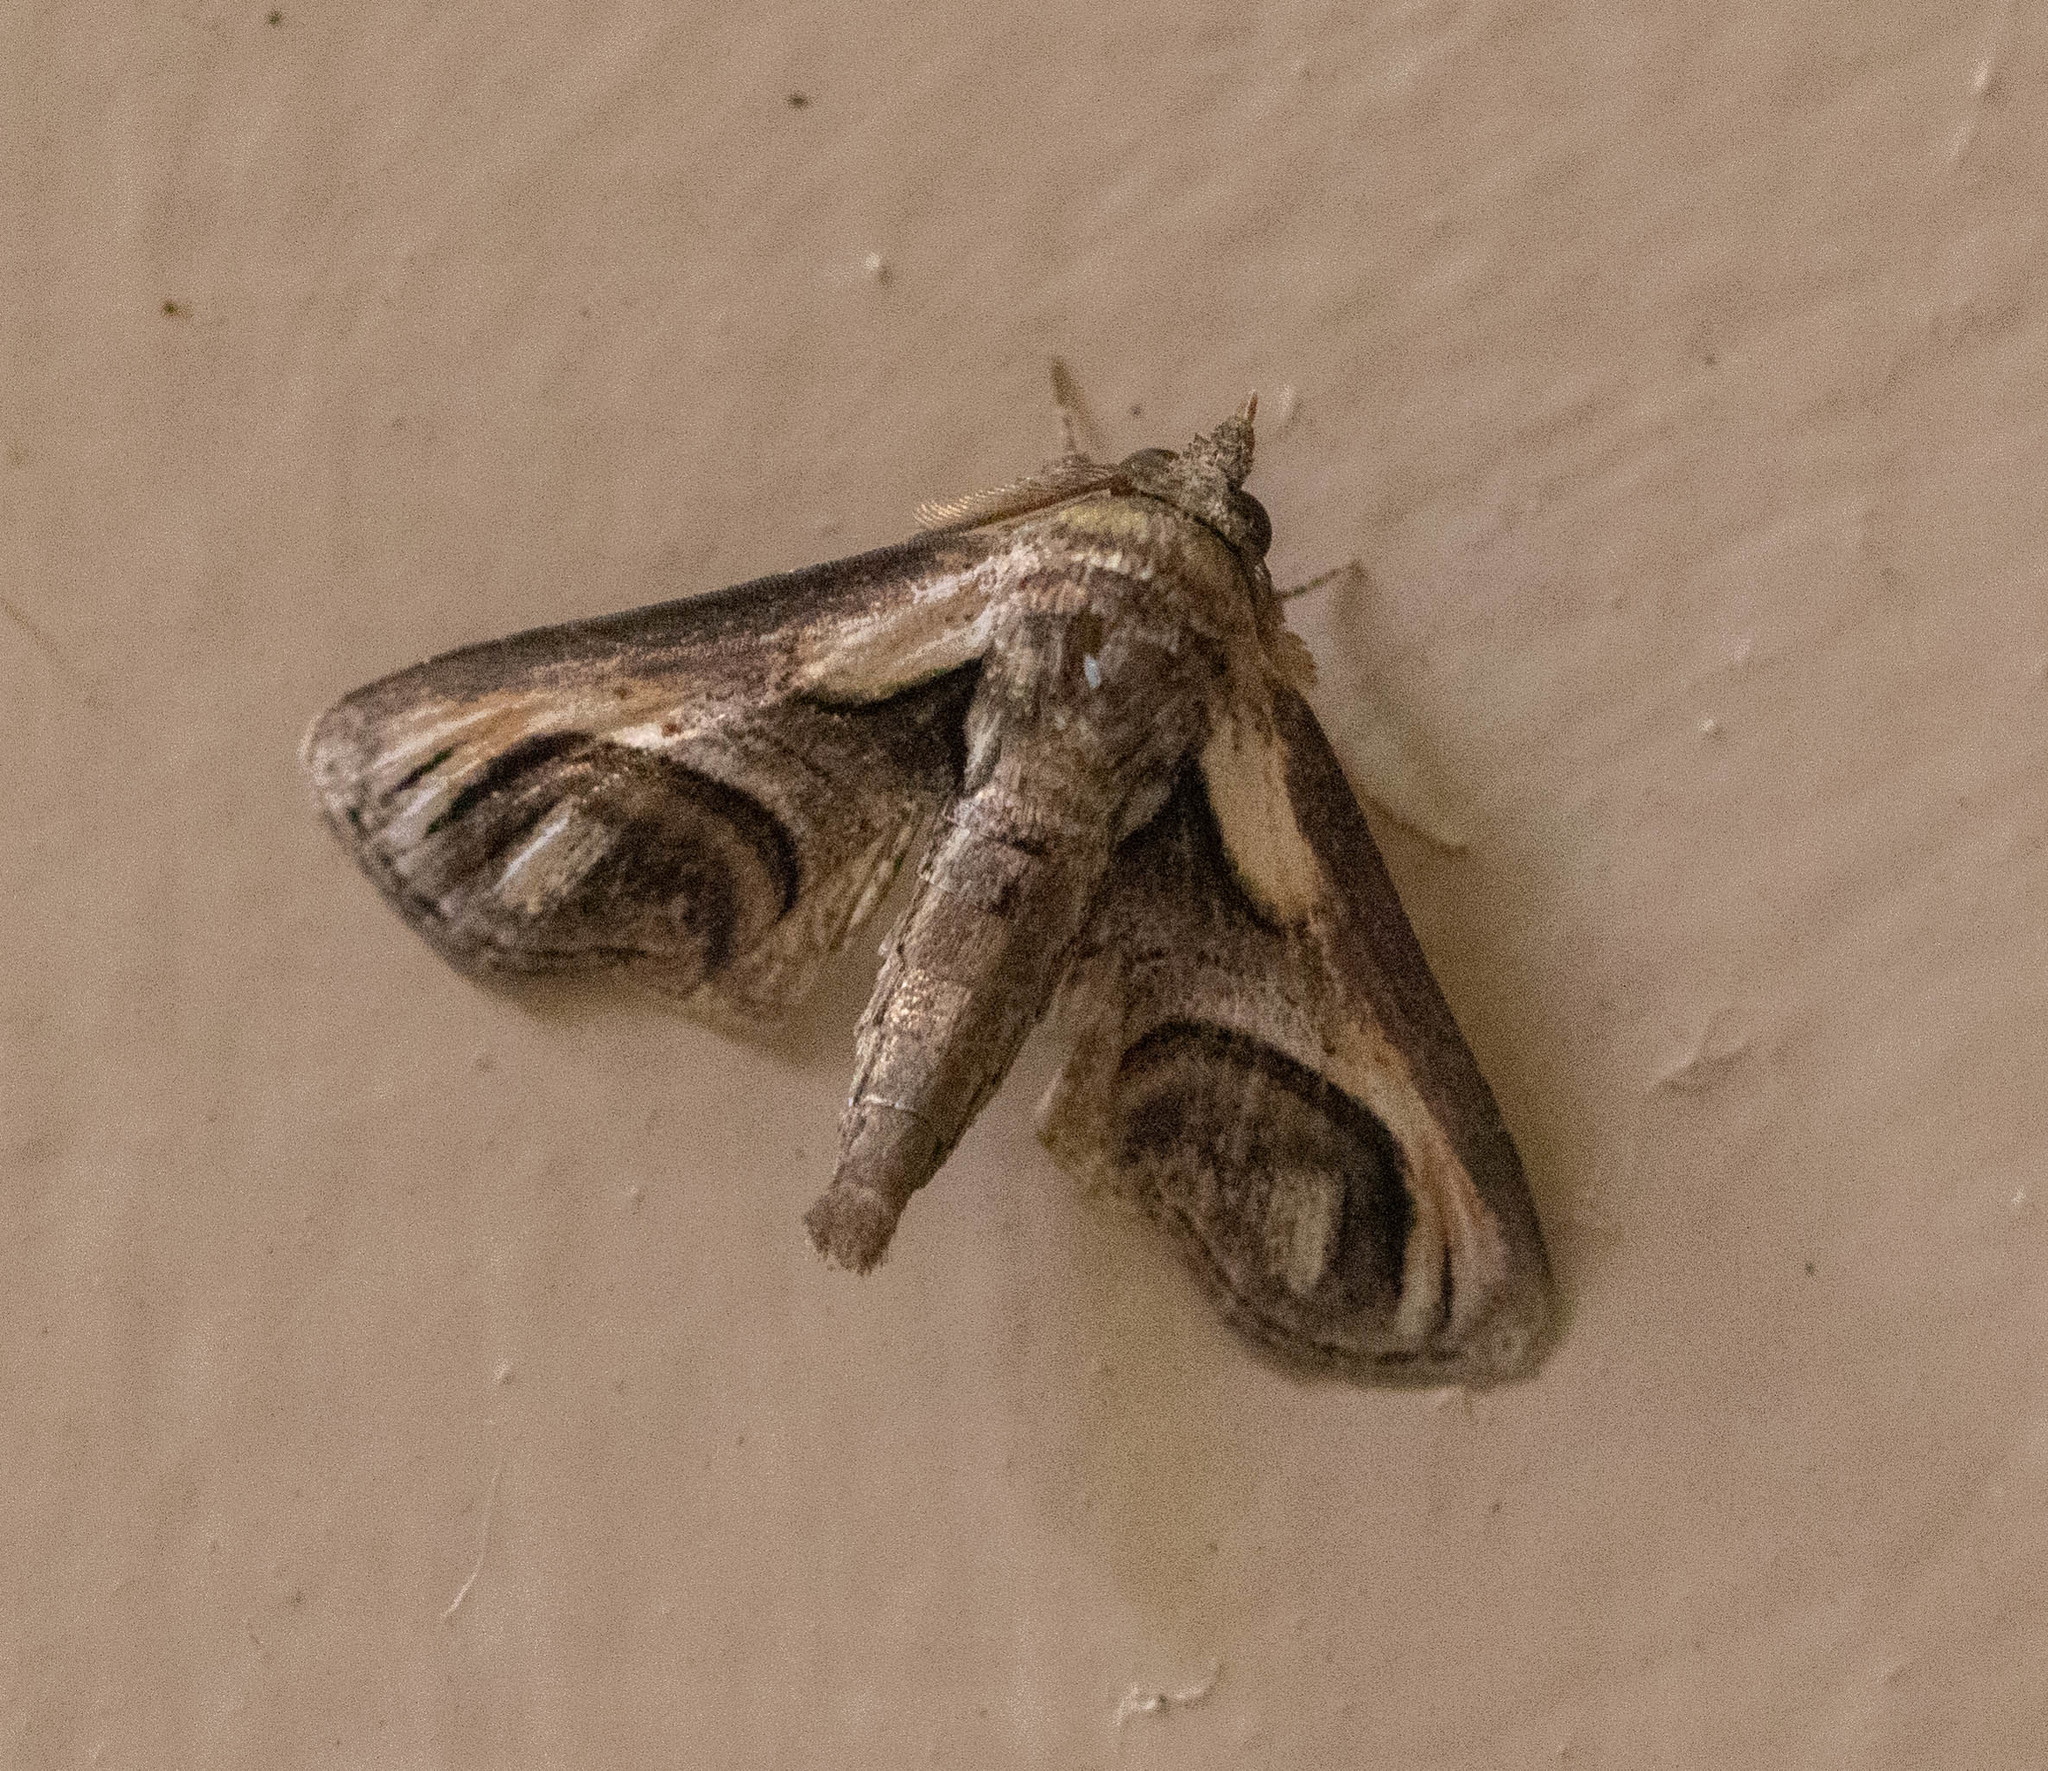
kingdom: Animalia
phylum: Arthropoda
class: Insecta
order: Lepidoptera
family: Euteliidae
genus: Paectes
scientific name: Paectes oculatrix
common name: Eyed paectes moth
